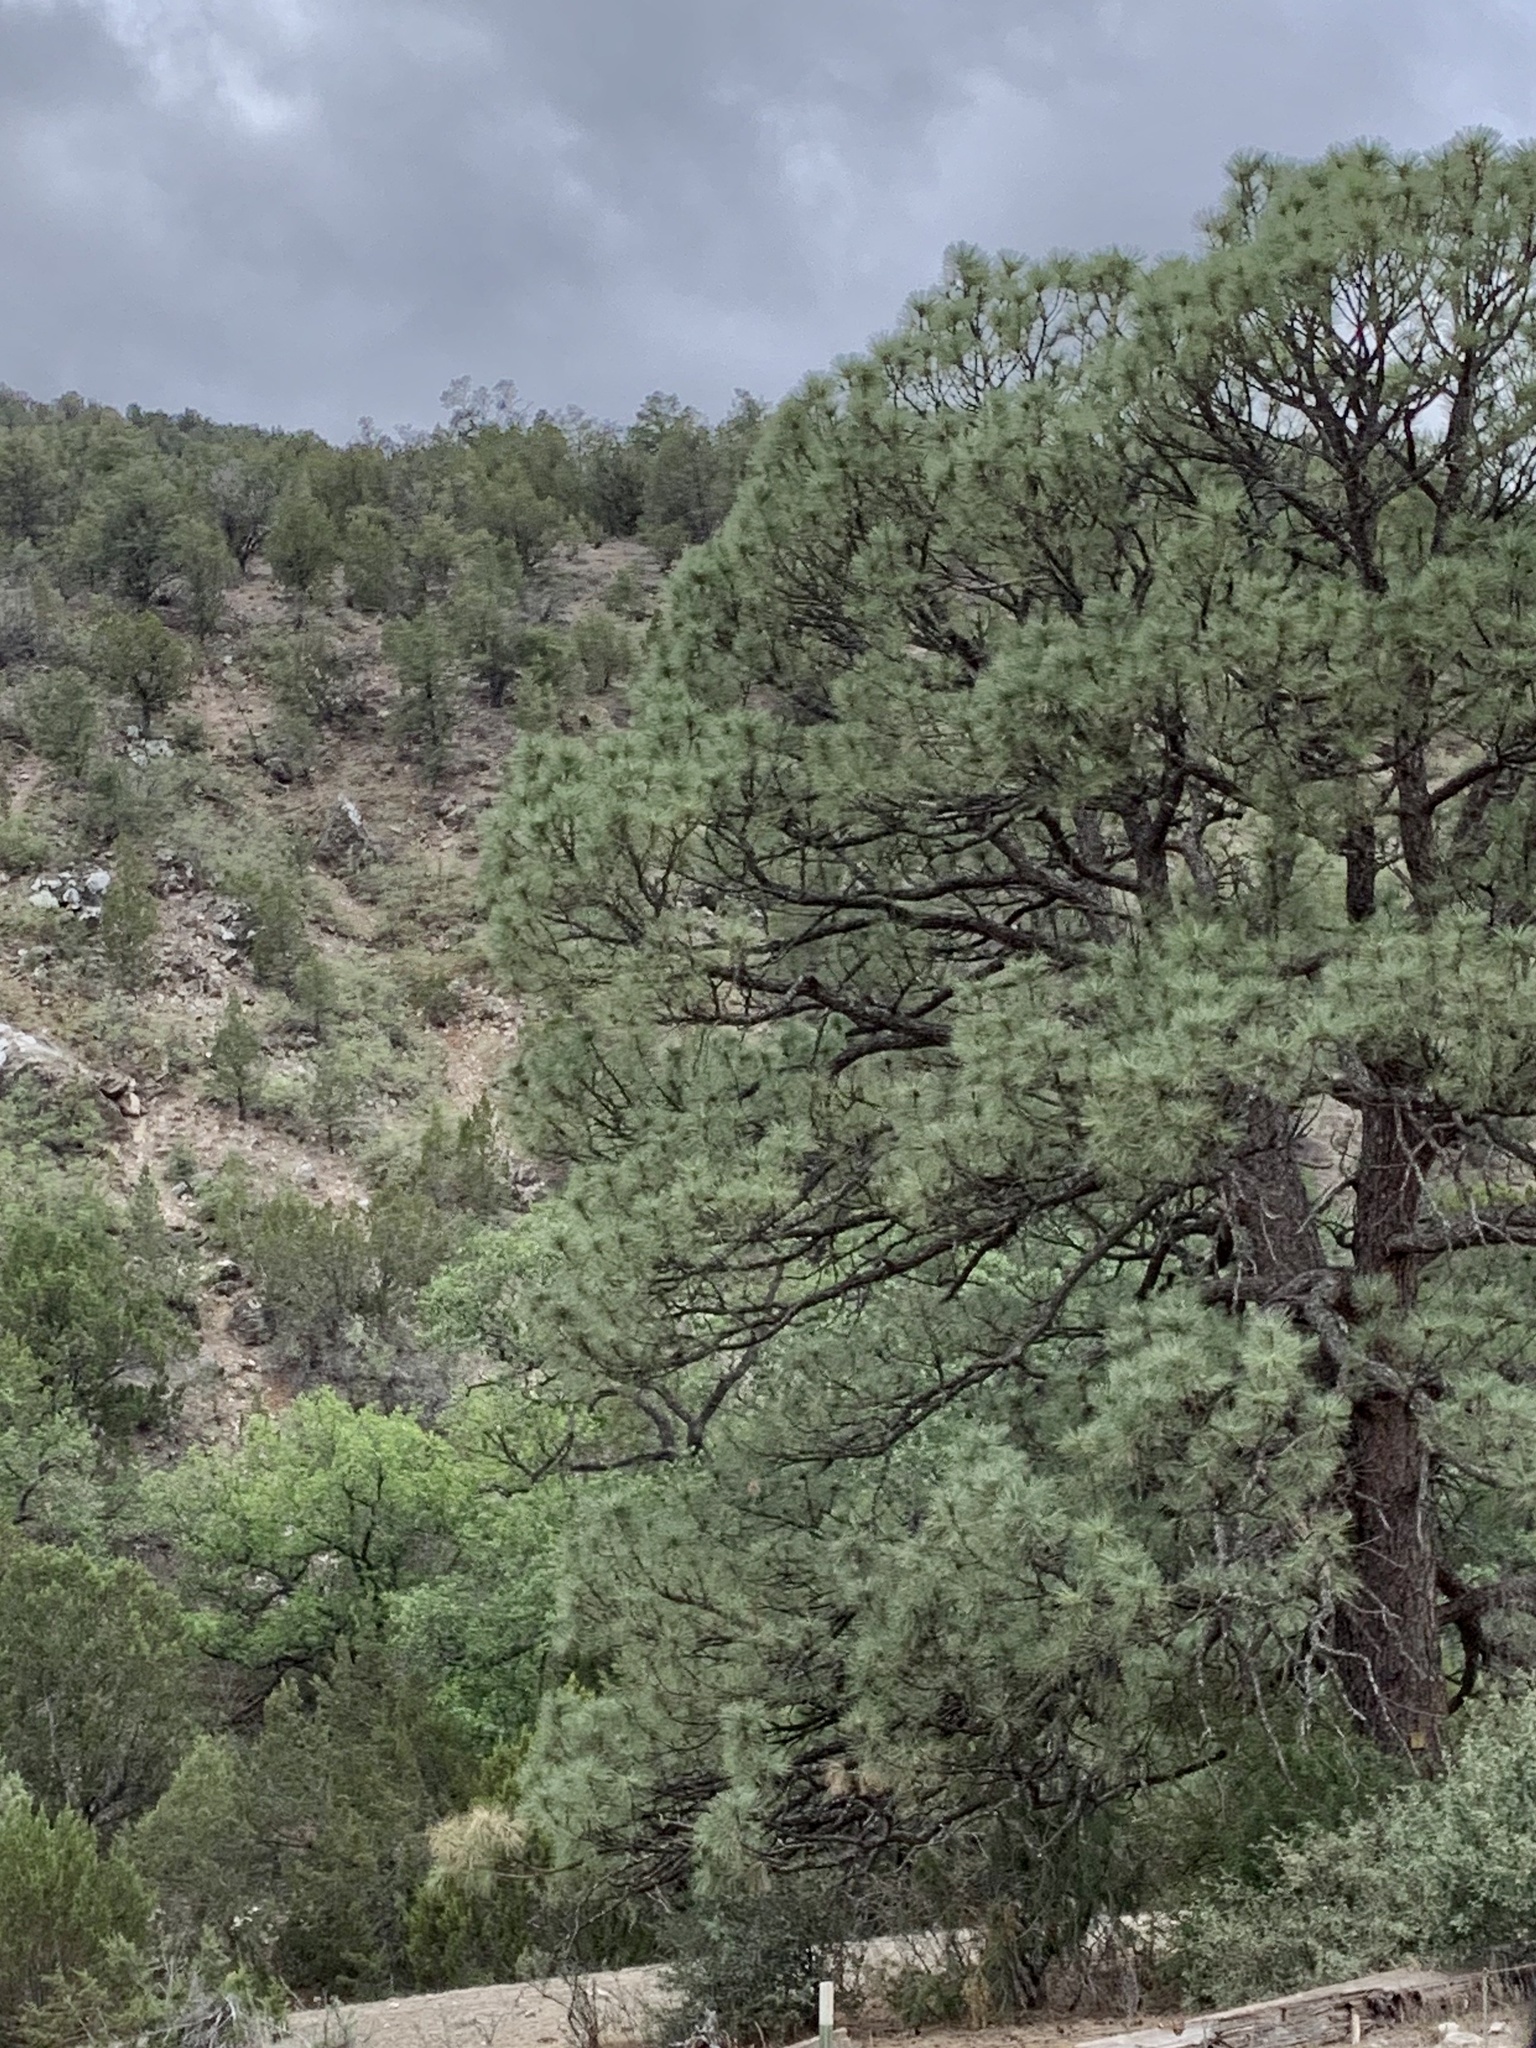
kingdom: Plantae
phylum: Tracheophyta
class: Pinopsida
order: Pinales
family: Pinaceae
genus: Pinus
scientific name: Pinus ponderosa
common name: Western yellow-pine
